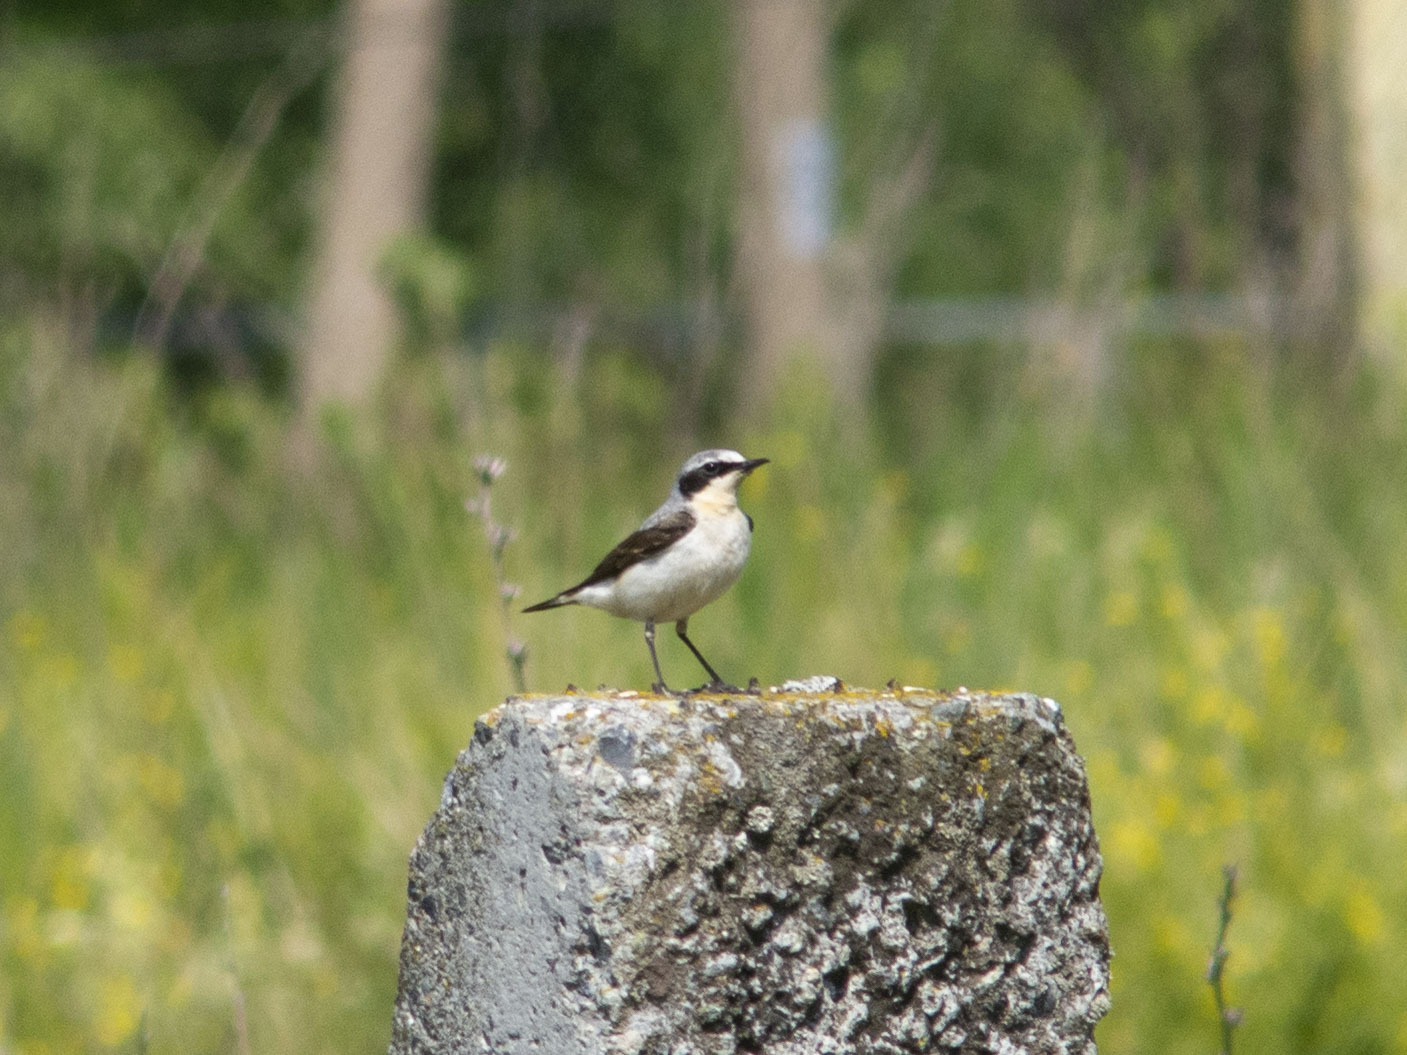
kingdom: Animalia
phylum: Chordata
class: Aves
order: Passeriformes
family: Muscicapidae
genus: Oenanthe
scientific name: Oenanthe oenanthe
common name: Northern wheatear
